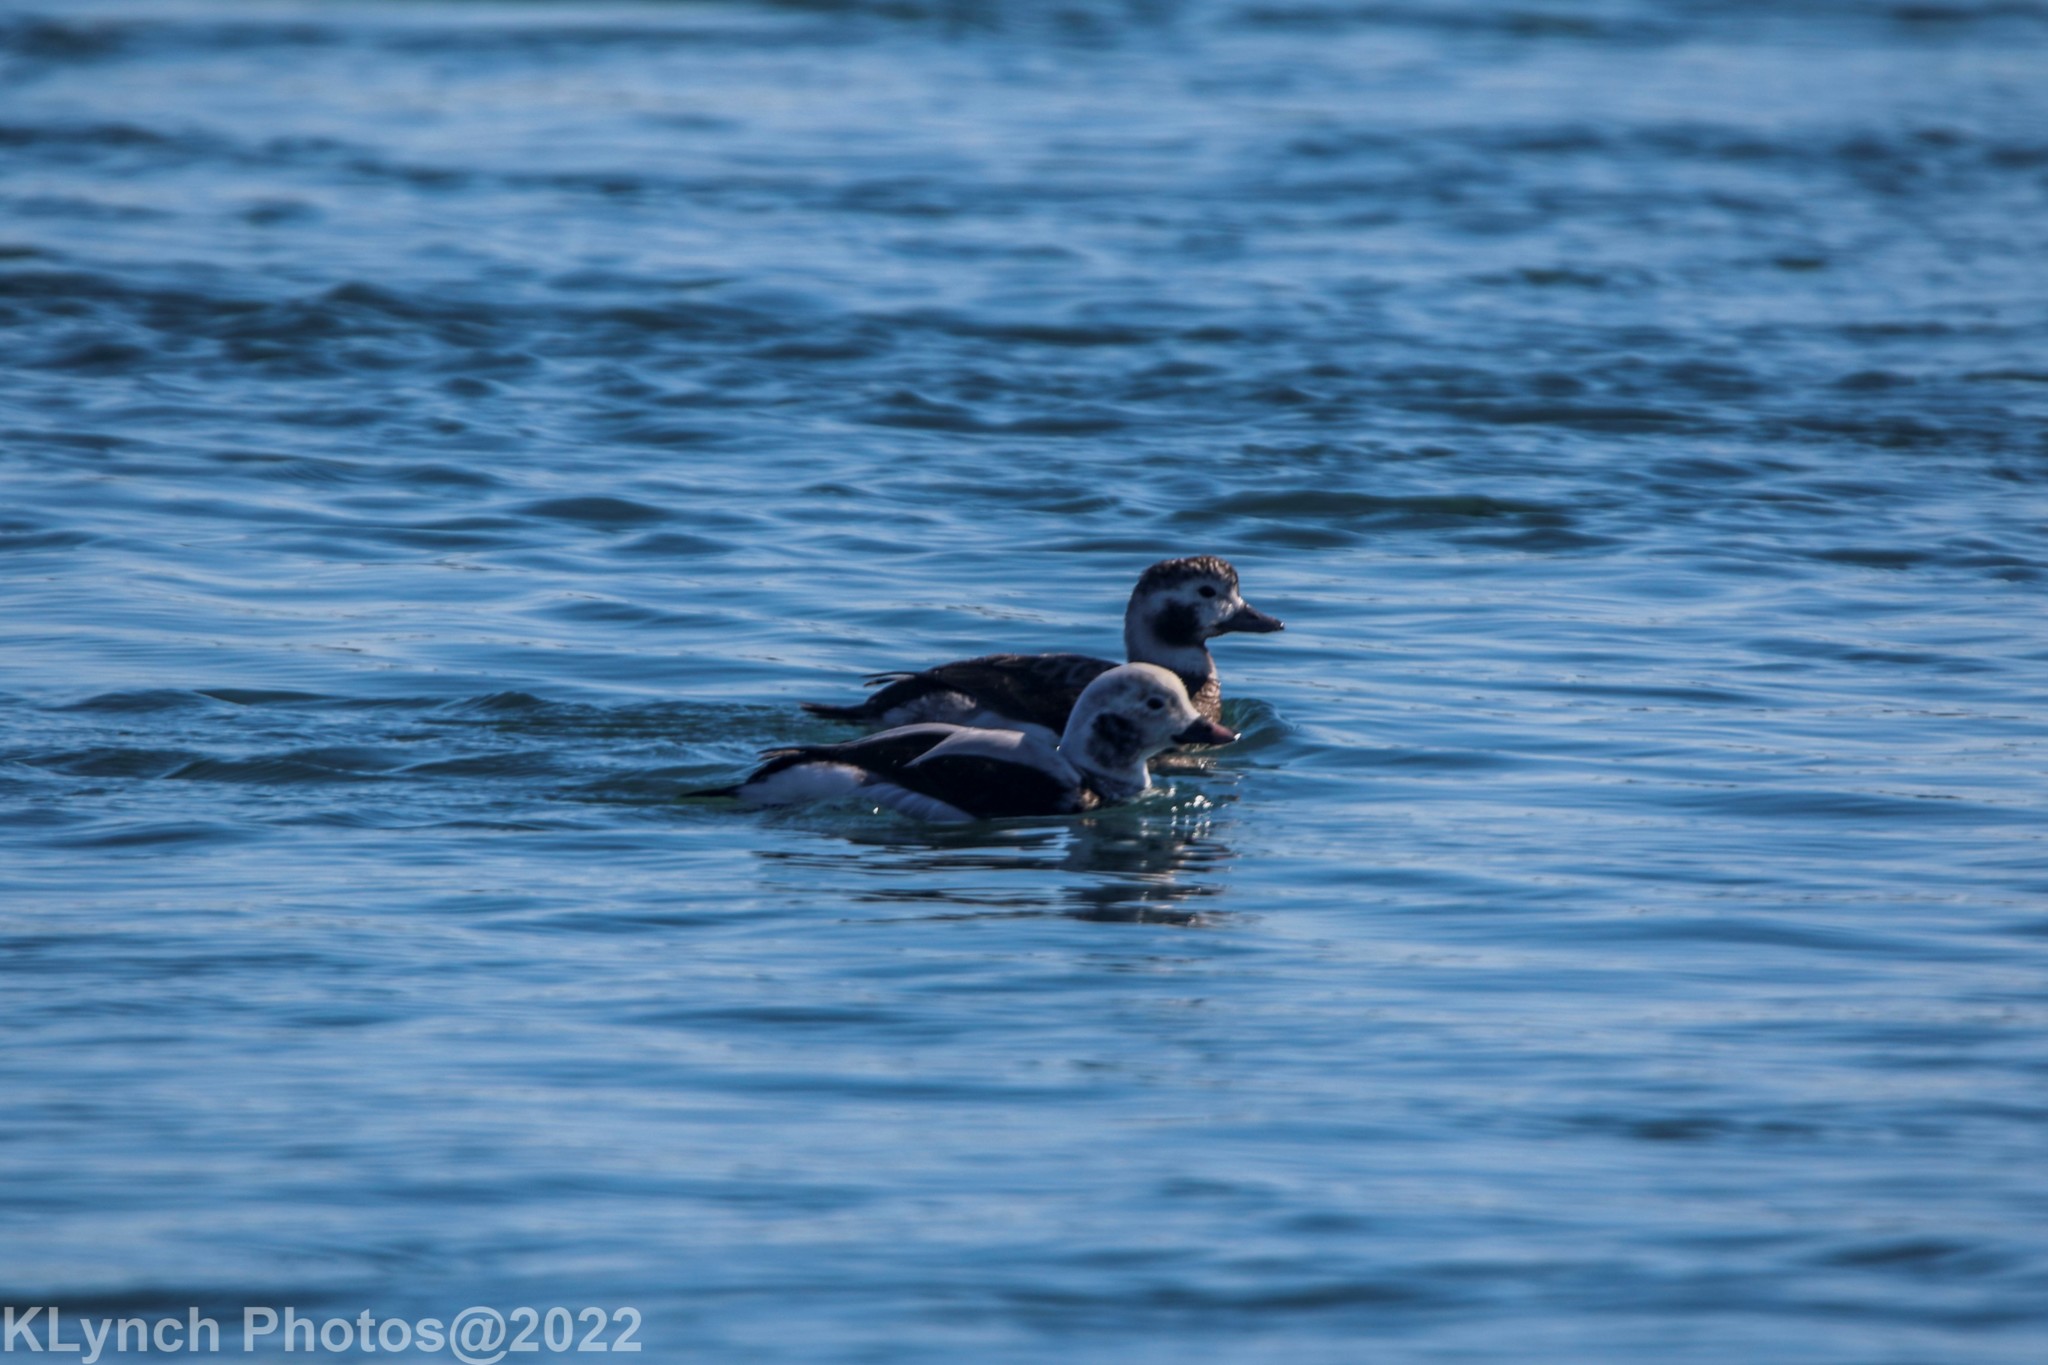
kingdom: Animalia
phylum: Chordata
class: Aves
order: Anseriformes
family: Anatidae
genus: Clangula
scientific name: Clangula hyemalis
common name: Long-tailed duck
